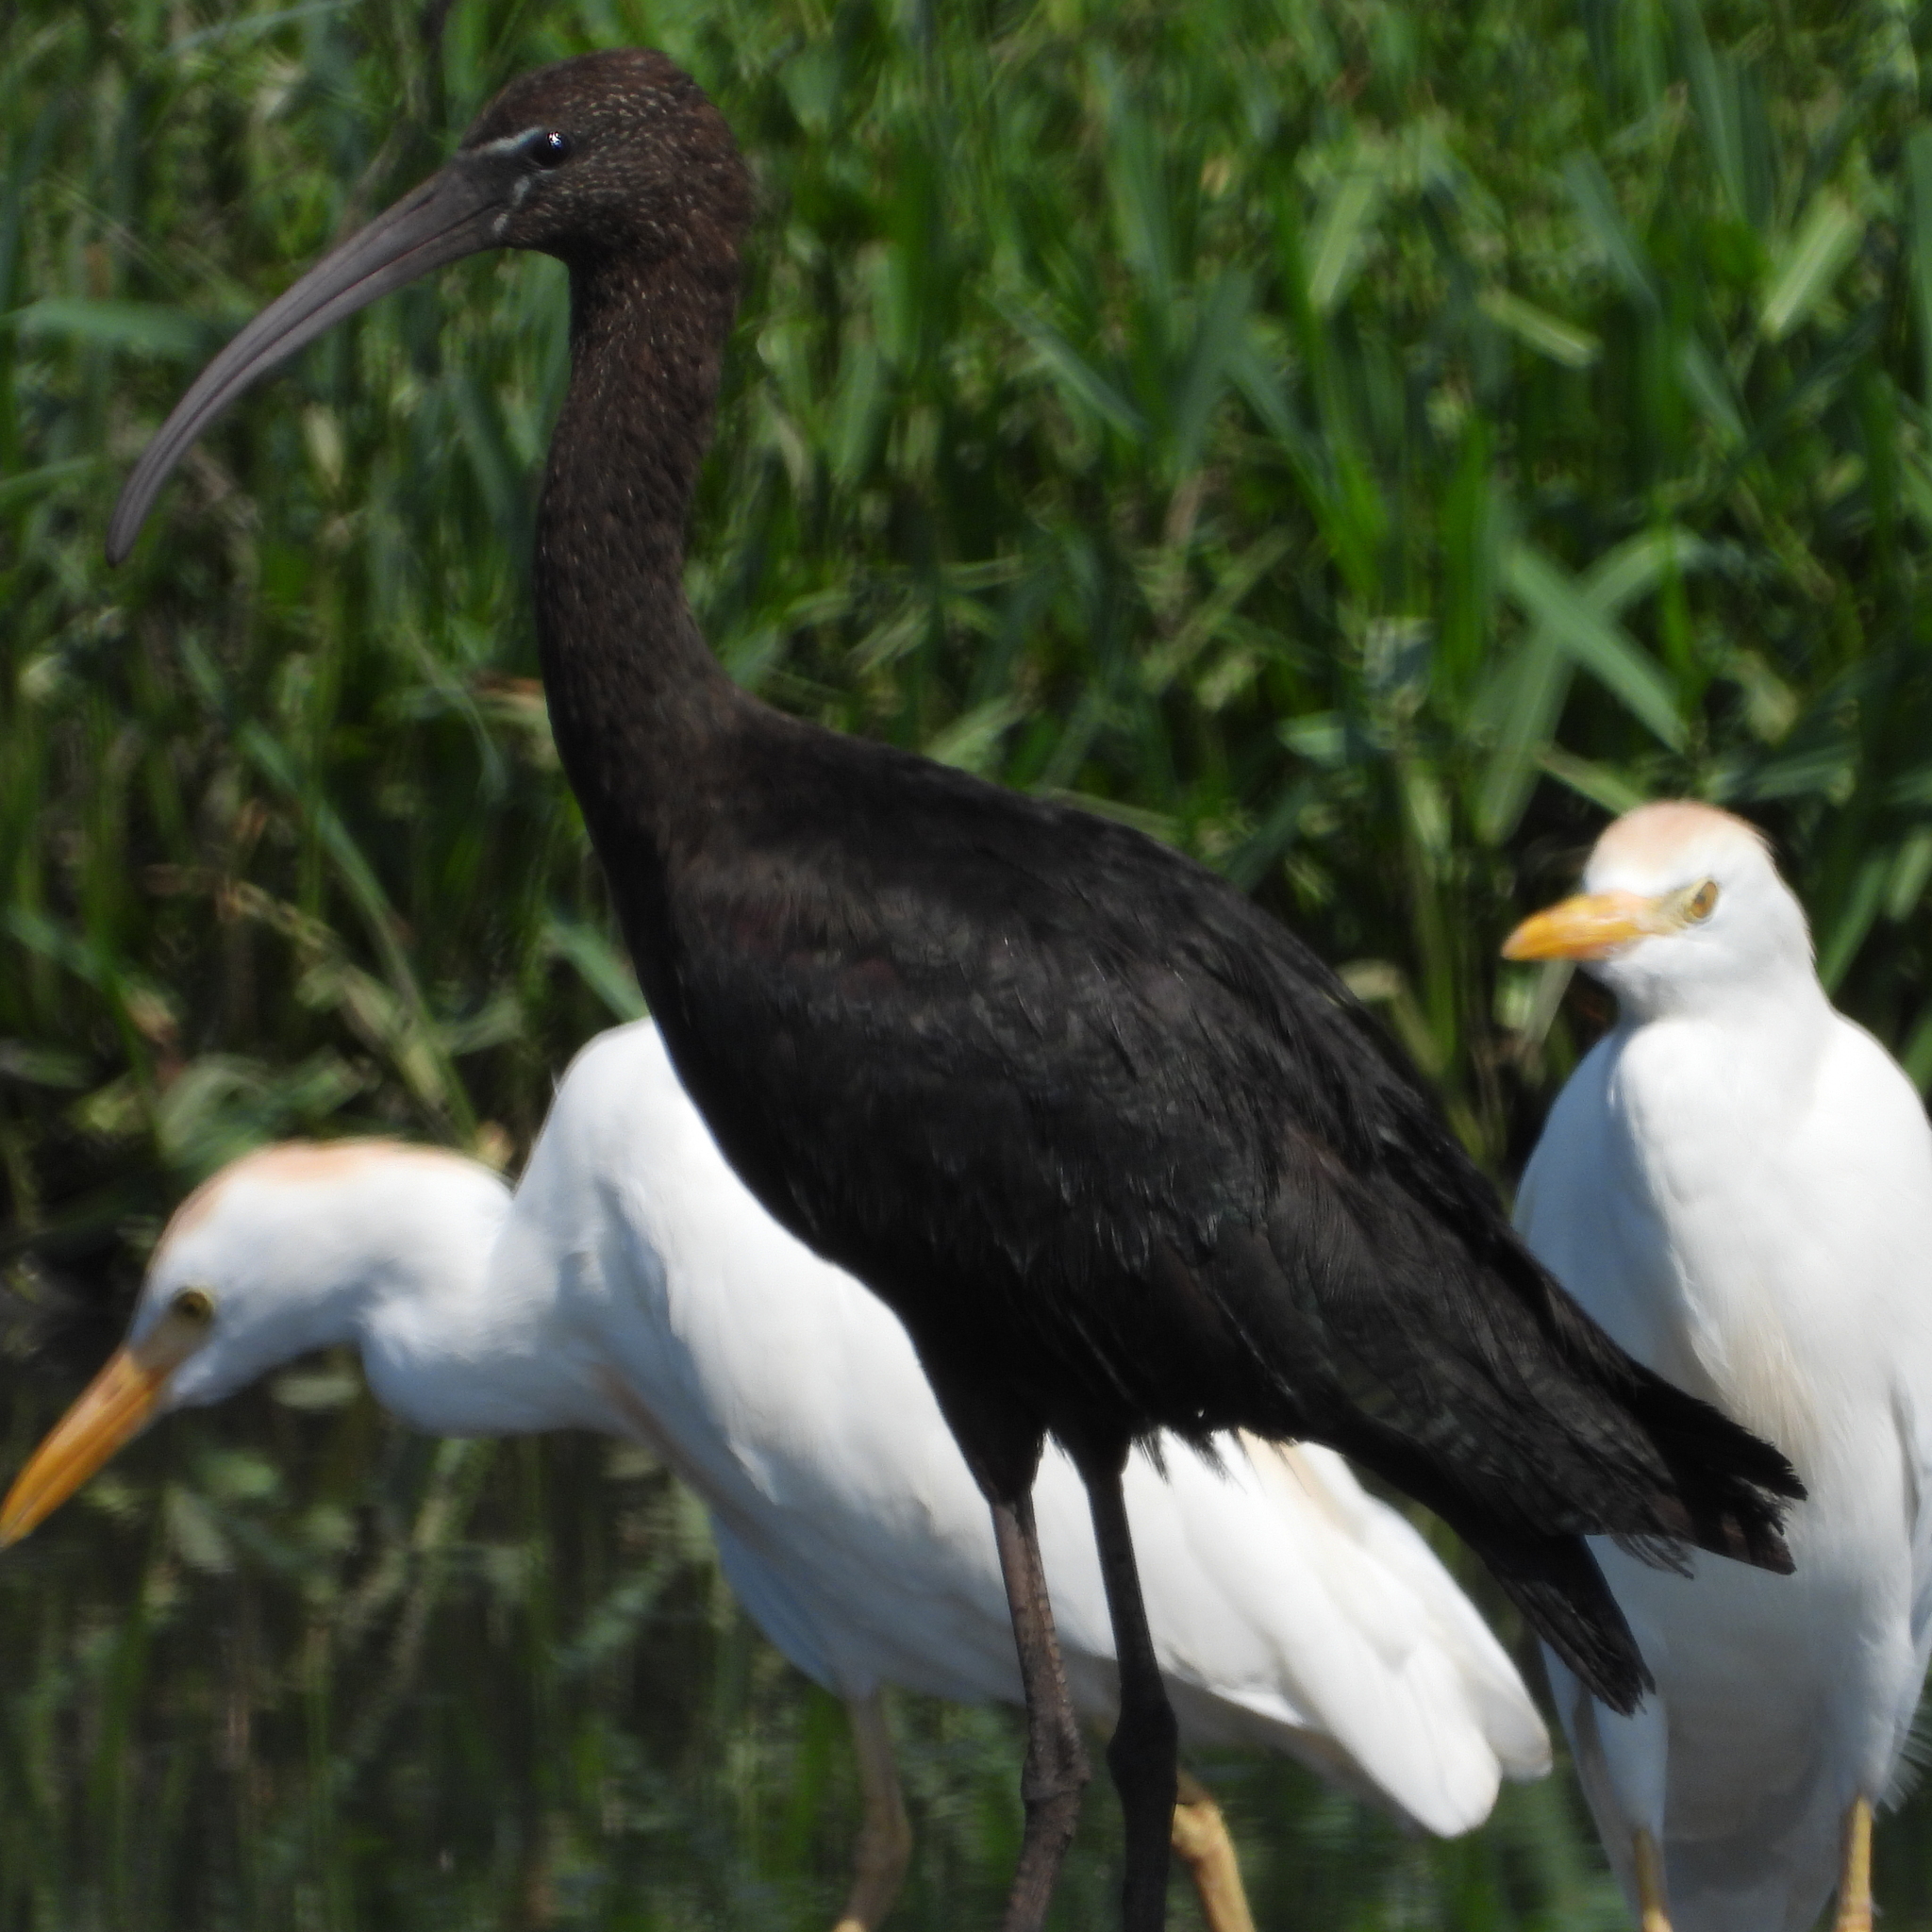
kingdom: Animalia
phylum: Chordata
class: Aves
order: Pelecaniformes
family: Threskiornithidae
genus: Plegadis
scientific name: Plegadis falcinellus
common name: Glossy ibis
